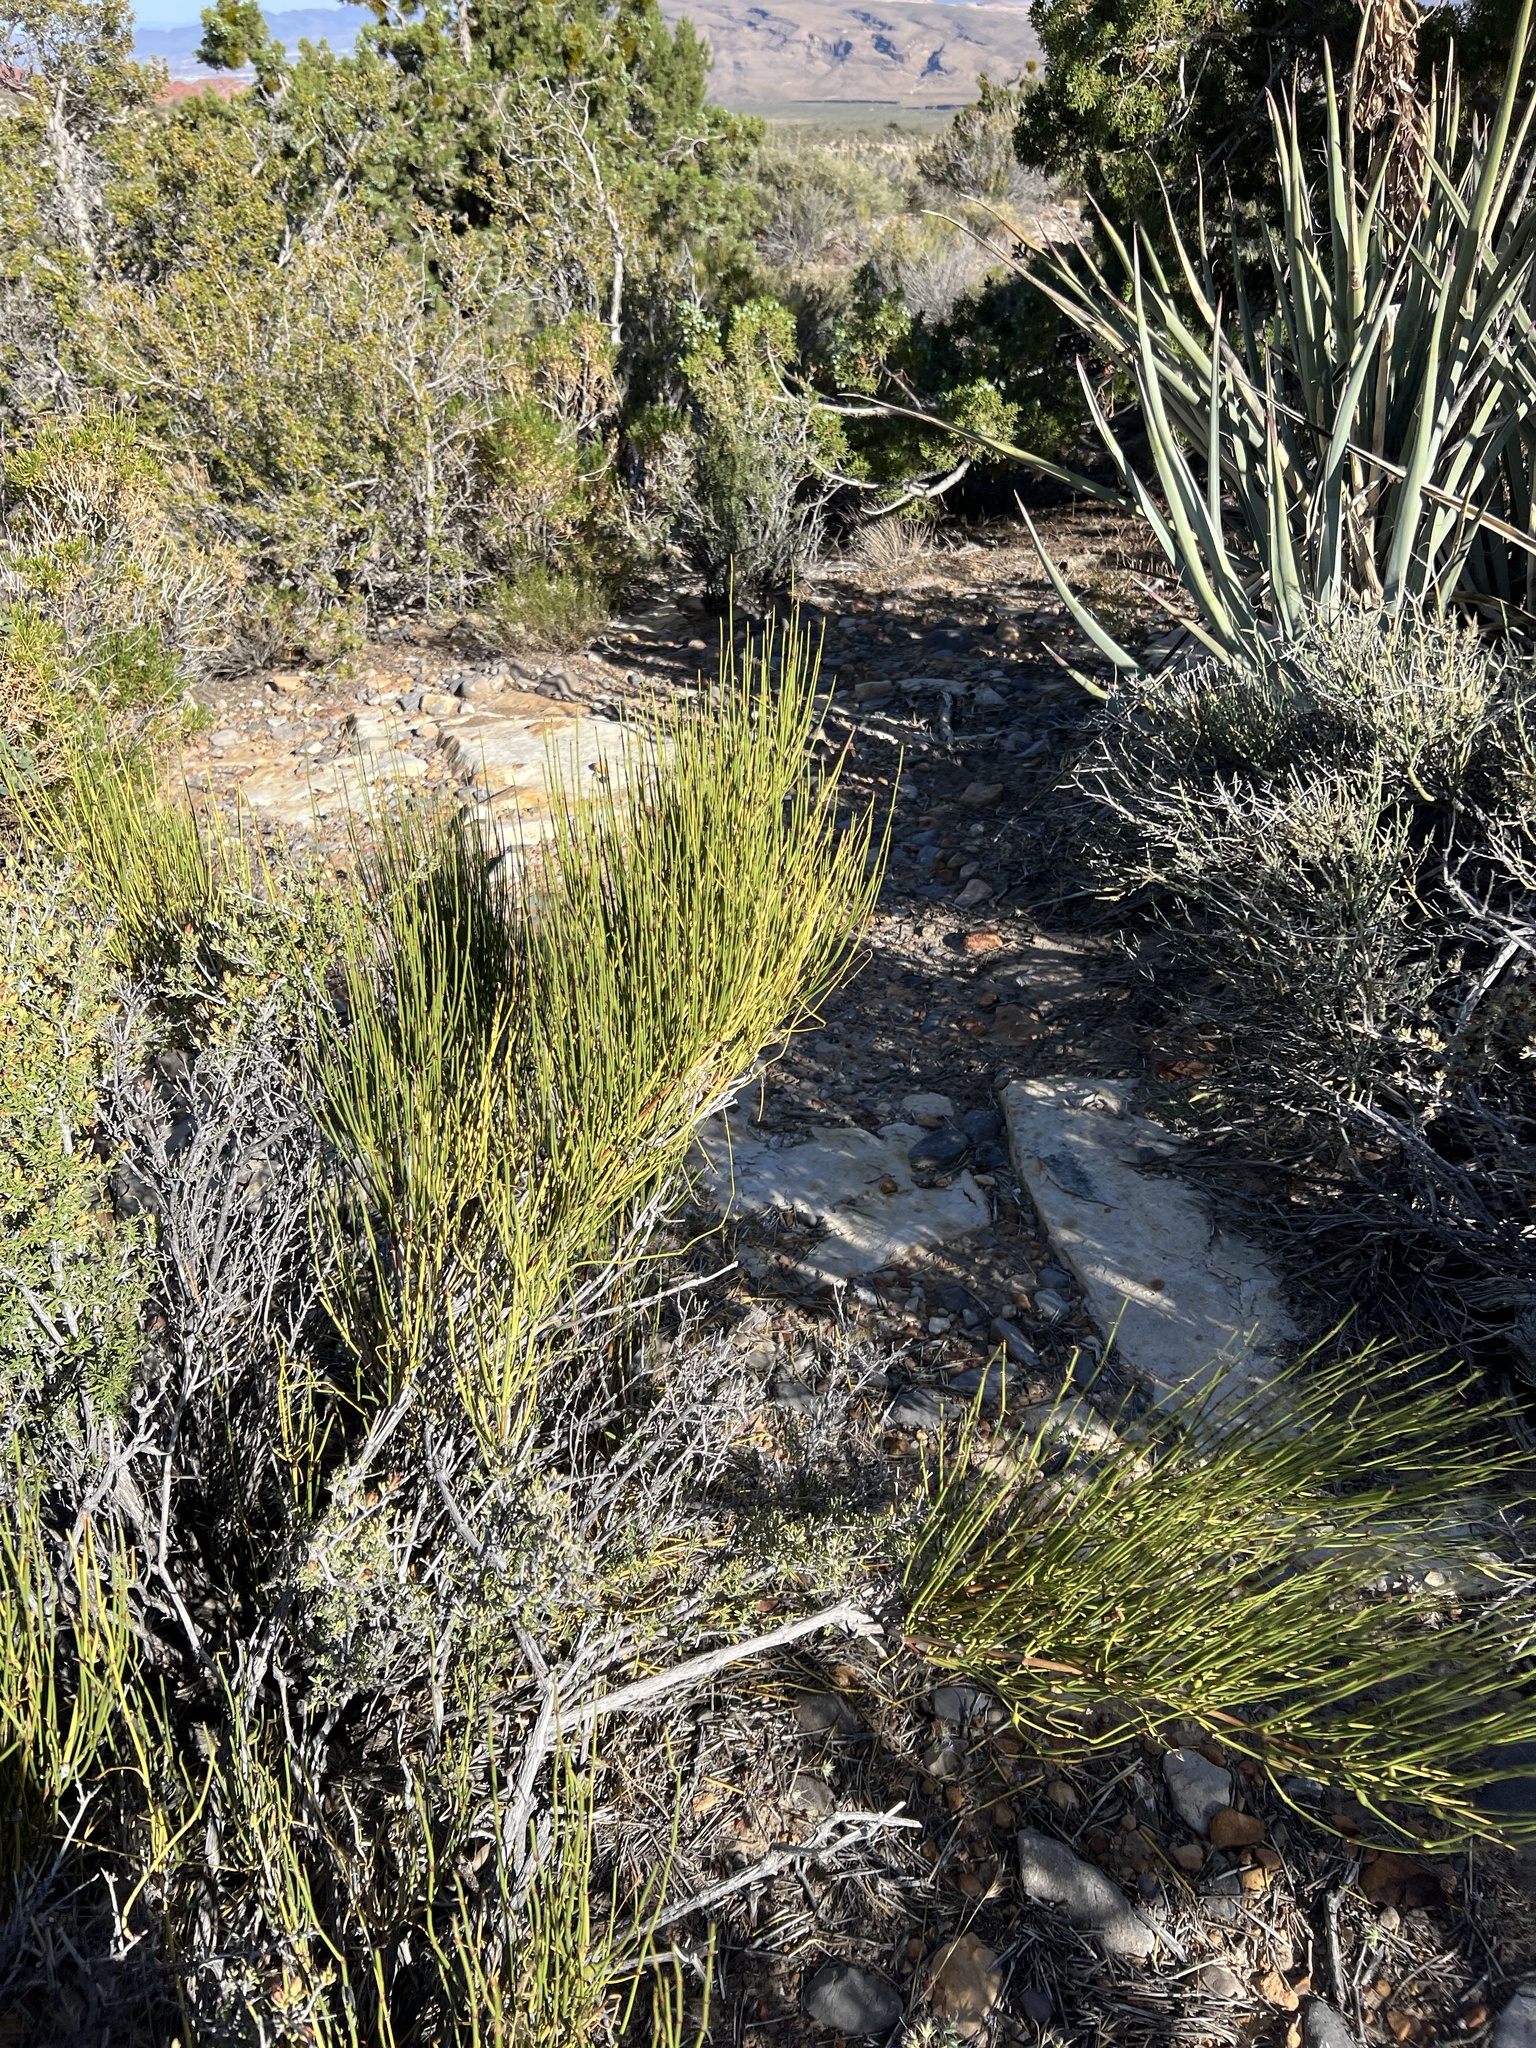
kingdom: Plantae
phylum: Tracheophyta
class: Gnetopsida
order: Ephedrales
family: Ephedraceae
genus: Ephedra
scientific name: Ephedra viridis
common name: Green ephedra
